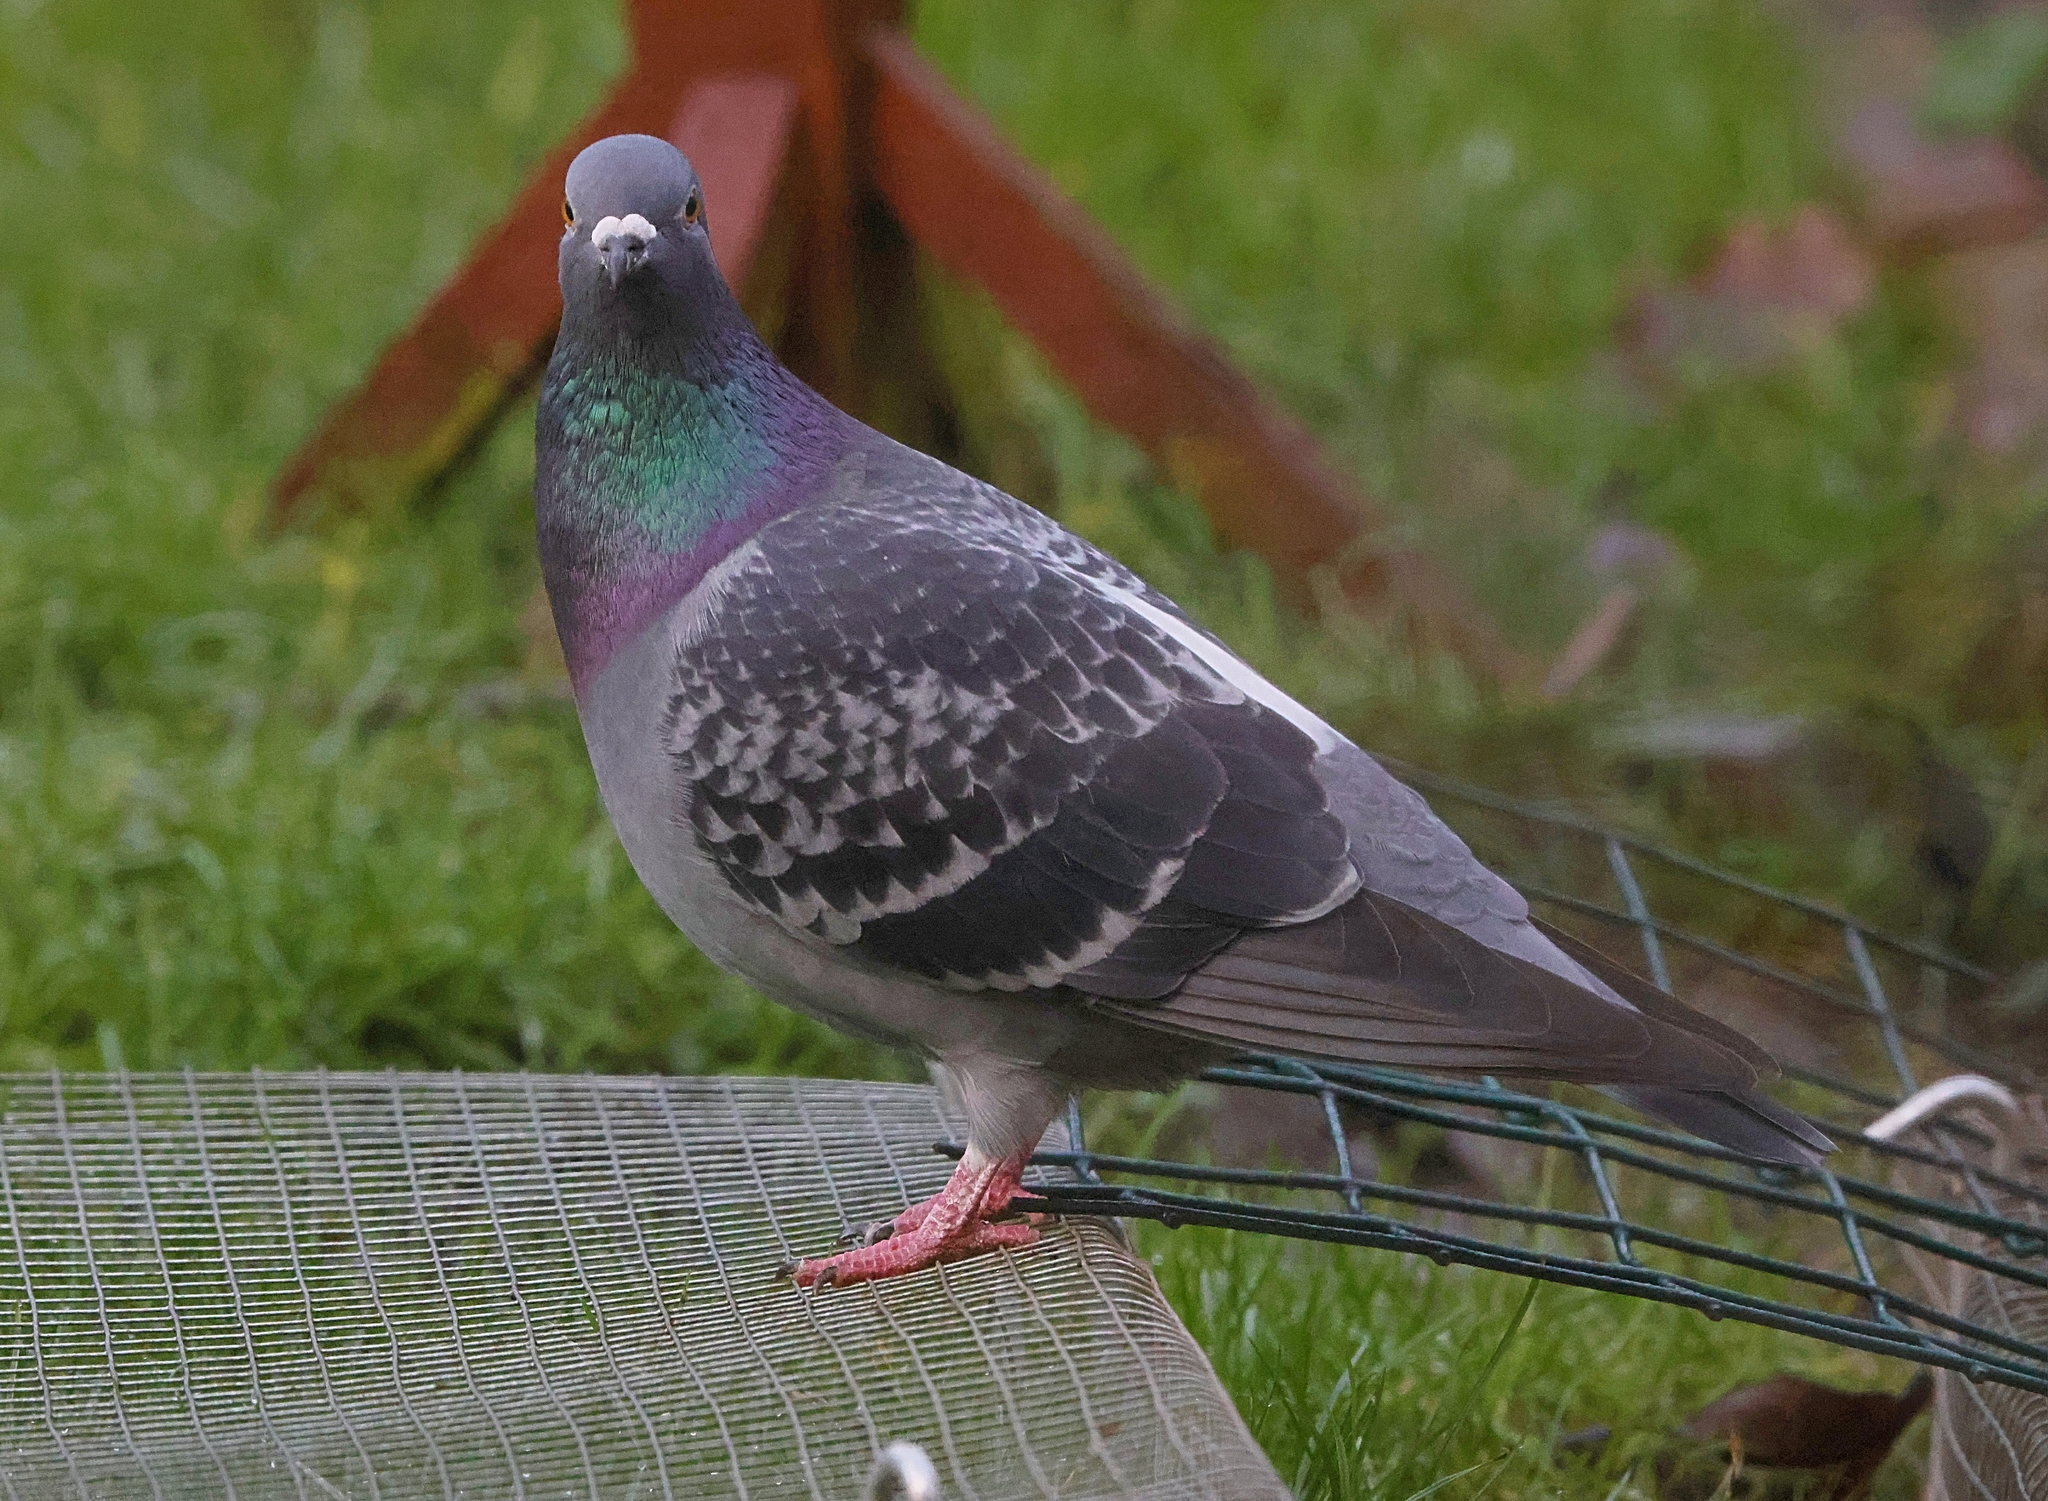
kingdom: Animalia
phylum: Chordata
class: Aves
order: Columbiformes
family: Columbidae
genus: Columba
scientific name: Columba livia
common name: Rock pigeon
